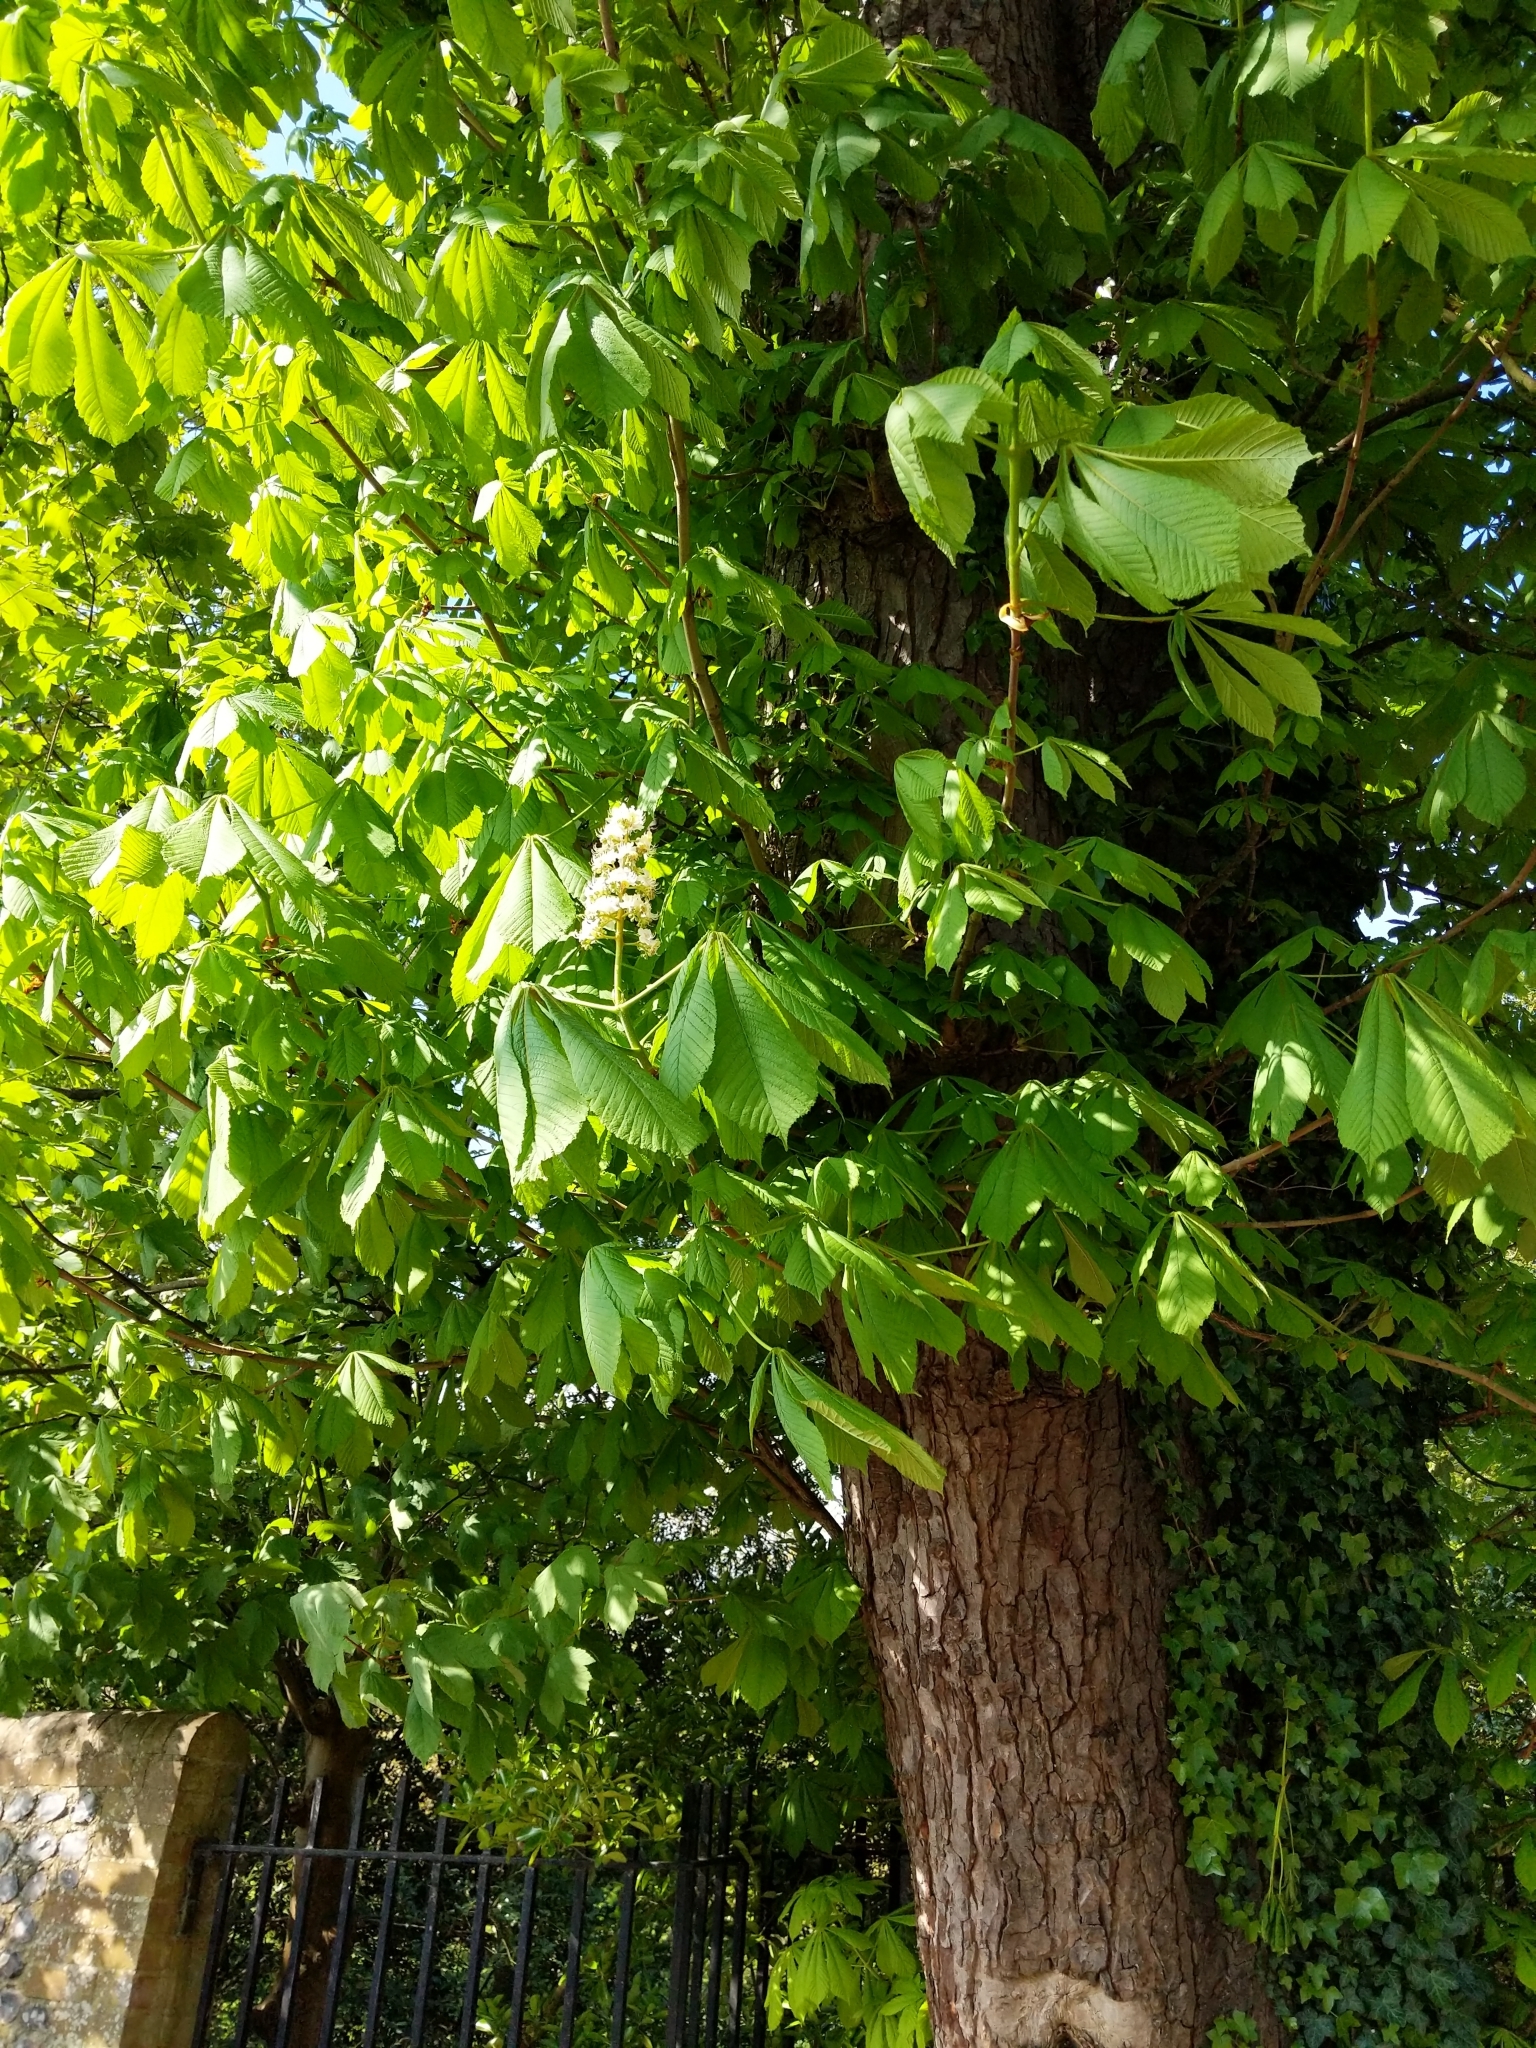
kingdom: Plantae
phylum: Tracheophyta
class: Magnoliopsida
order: Sapindales
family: Sapindaceae
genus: Aesculus
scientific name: Aesculus hippocastanum
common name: Horse-chestnut
